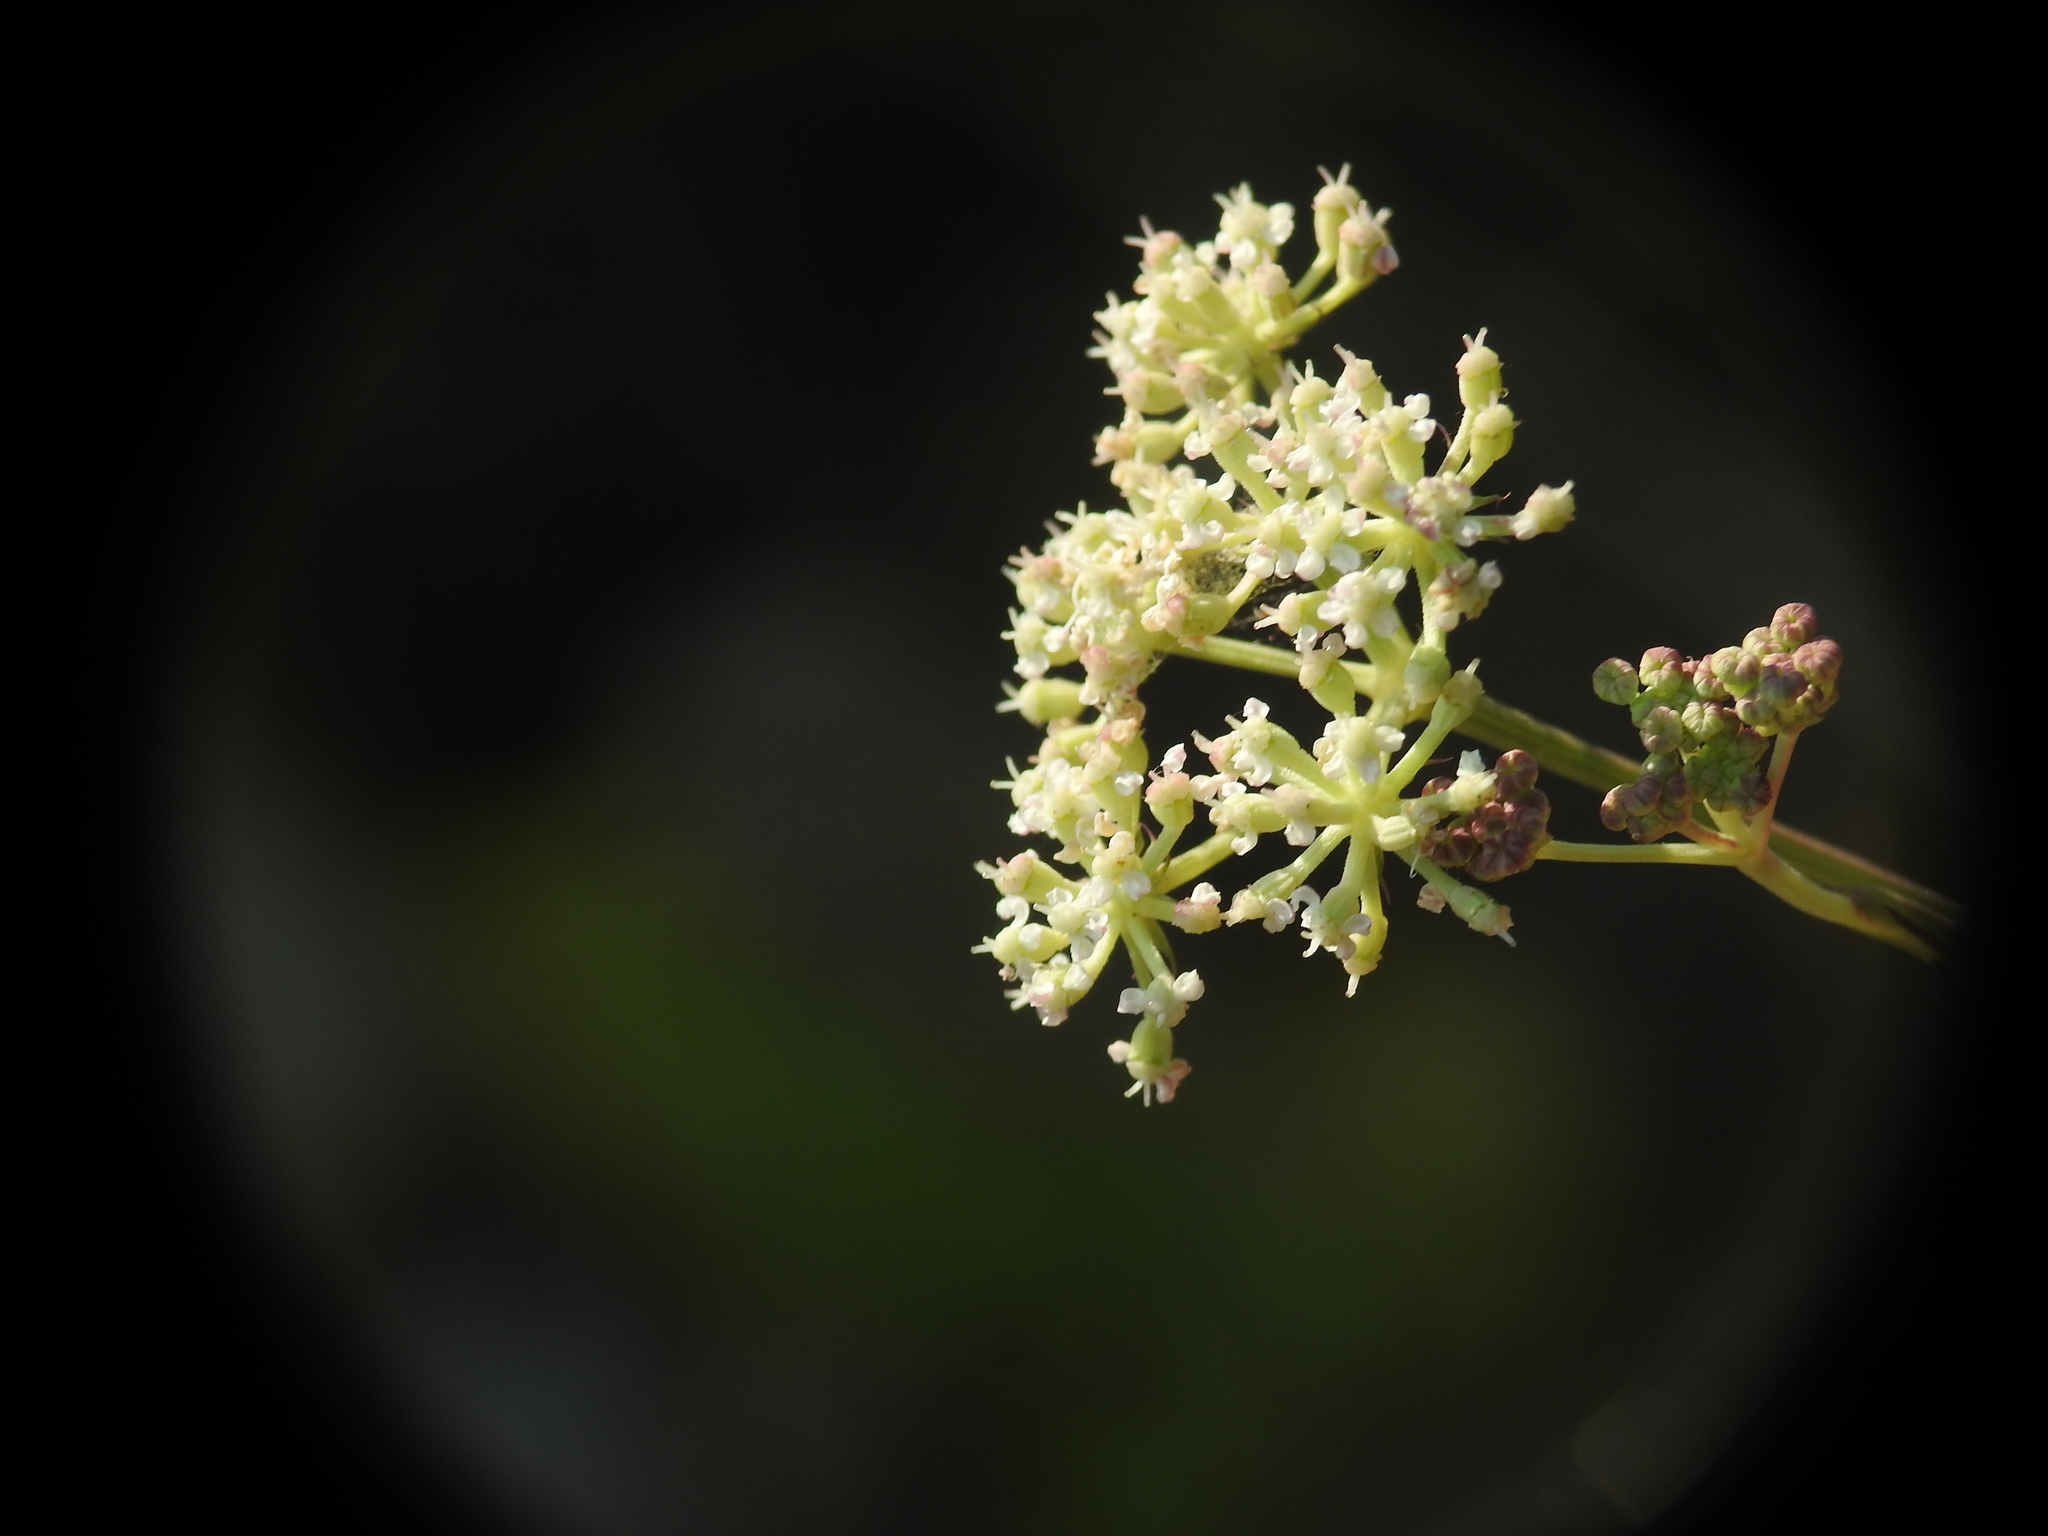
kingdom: Plantae
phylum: Tracheophyta
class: Magnoliopsida
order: Apiales
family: Apiaceae
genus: Seseli
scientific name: Seseli montanum
